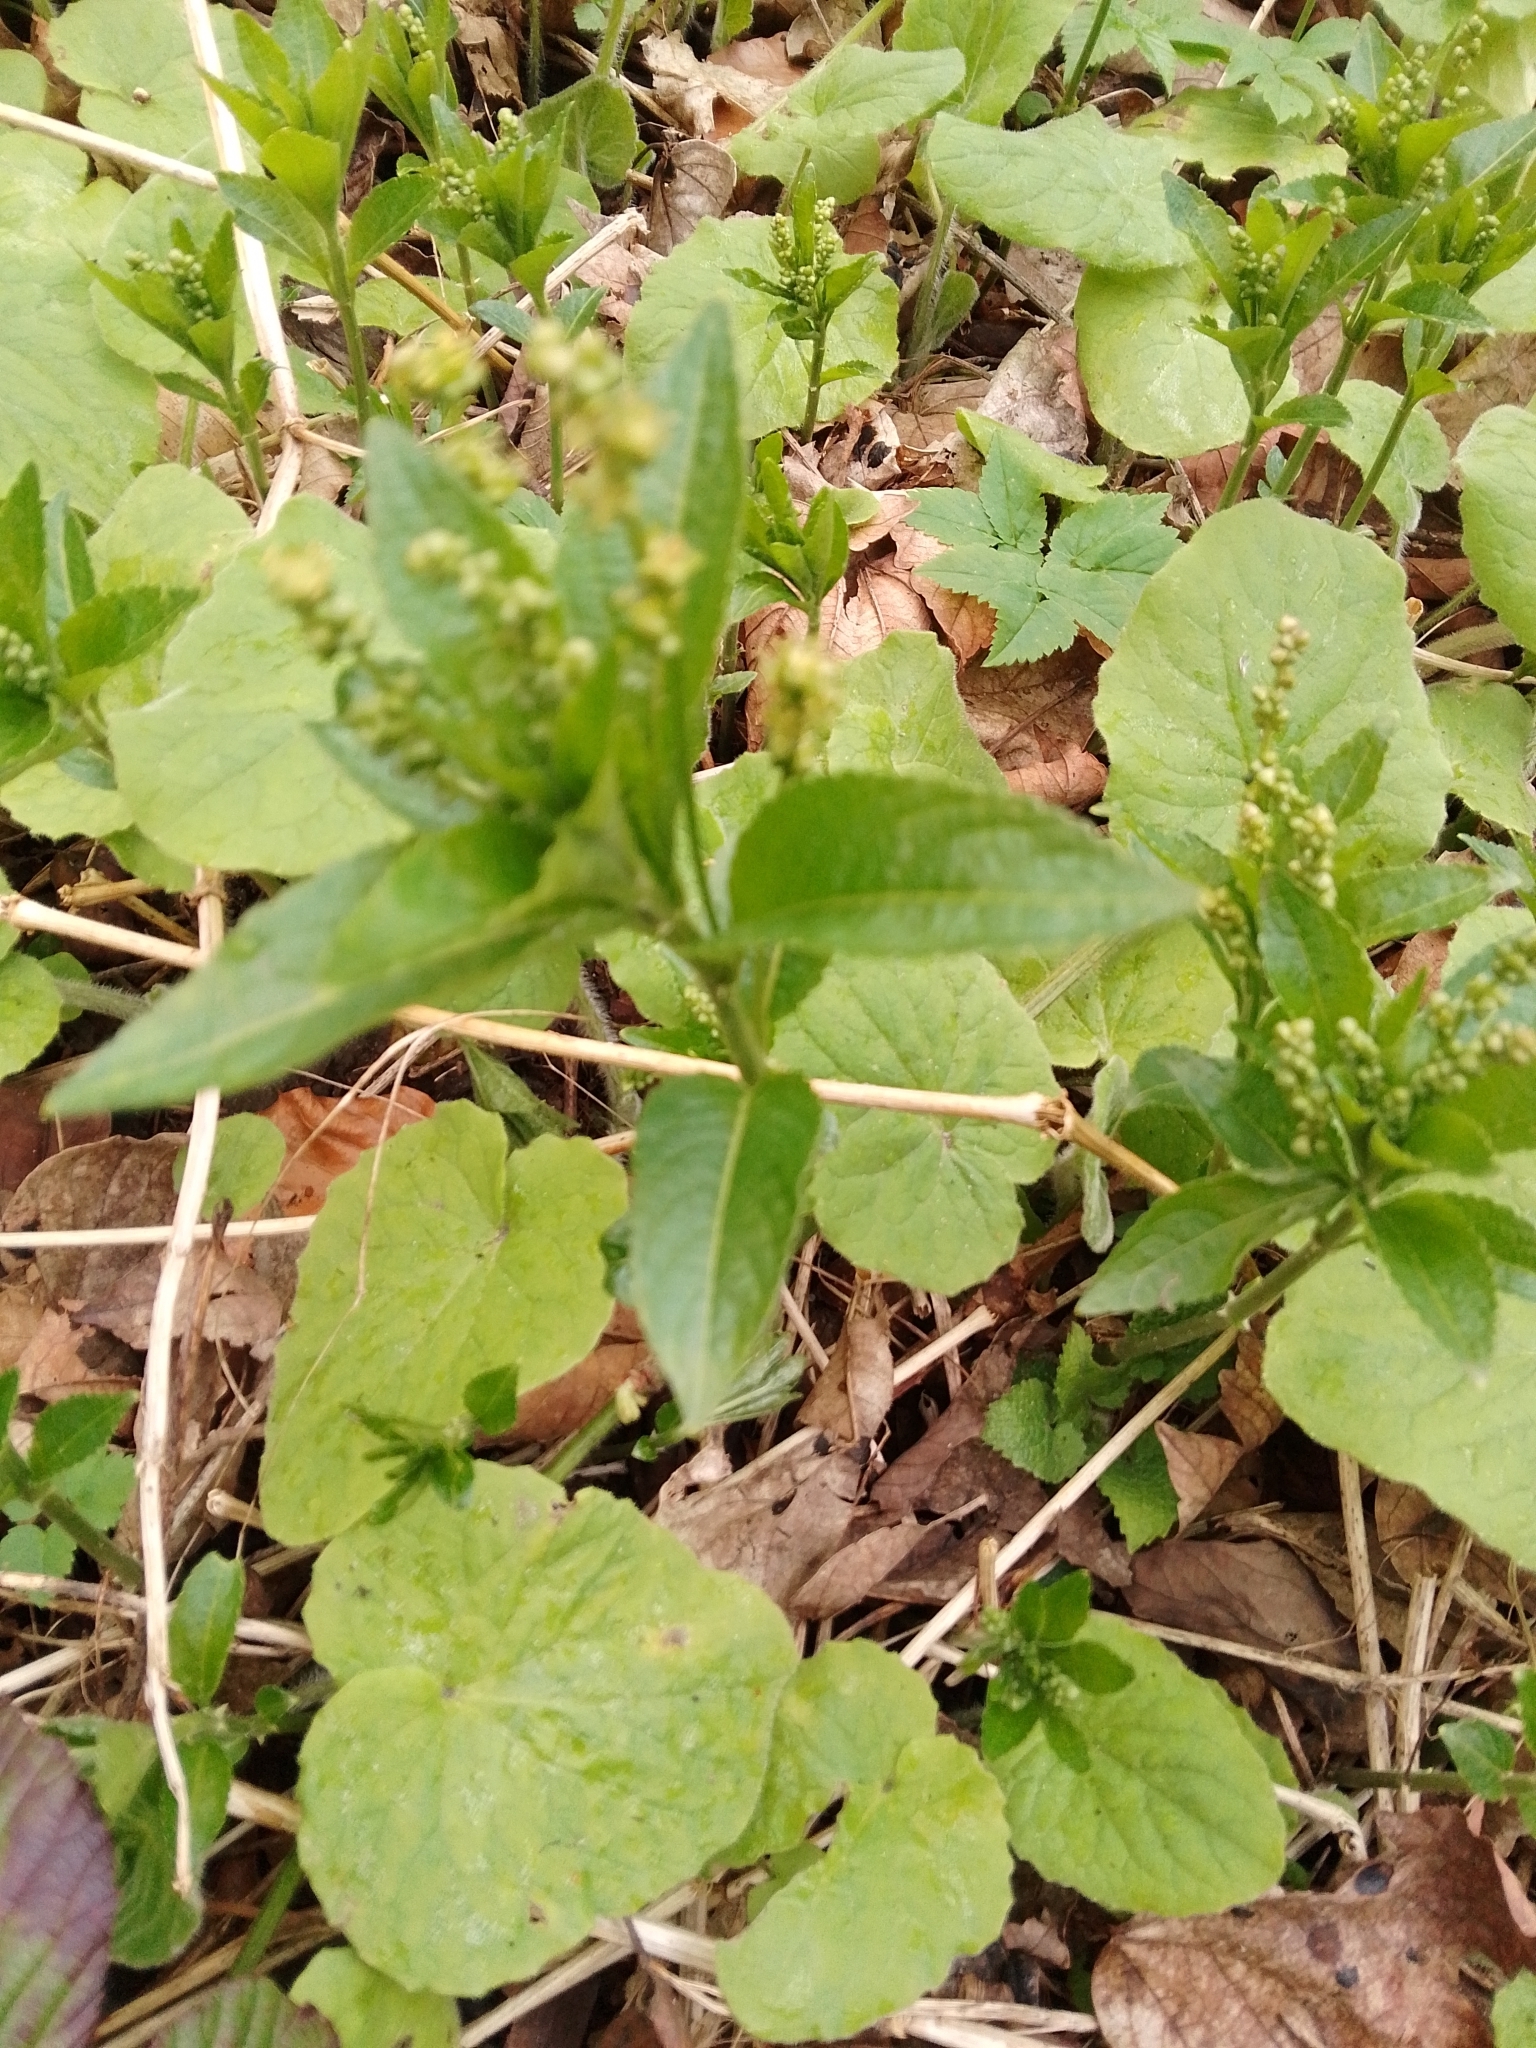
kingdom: Plantae
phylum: Tracheophyta
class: Magnoliopsida
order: Malpighiales
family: Euphorbiaceae
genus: Mercurialis
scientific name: Mercurialis perennis
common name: Dog mercury
